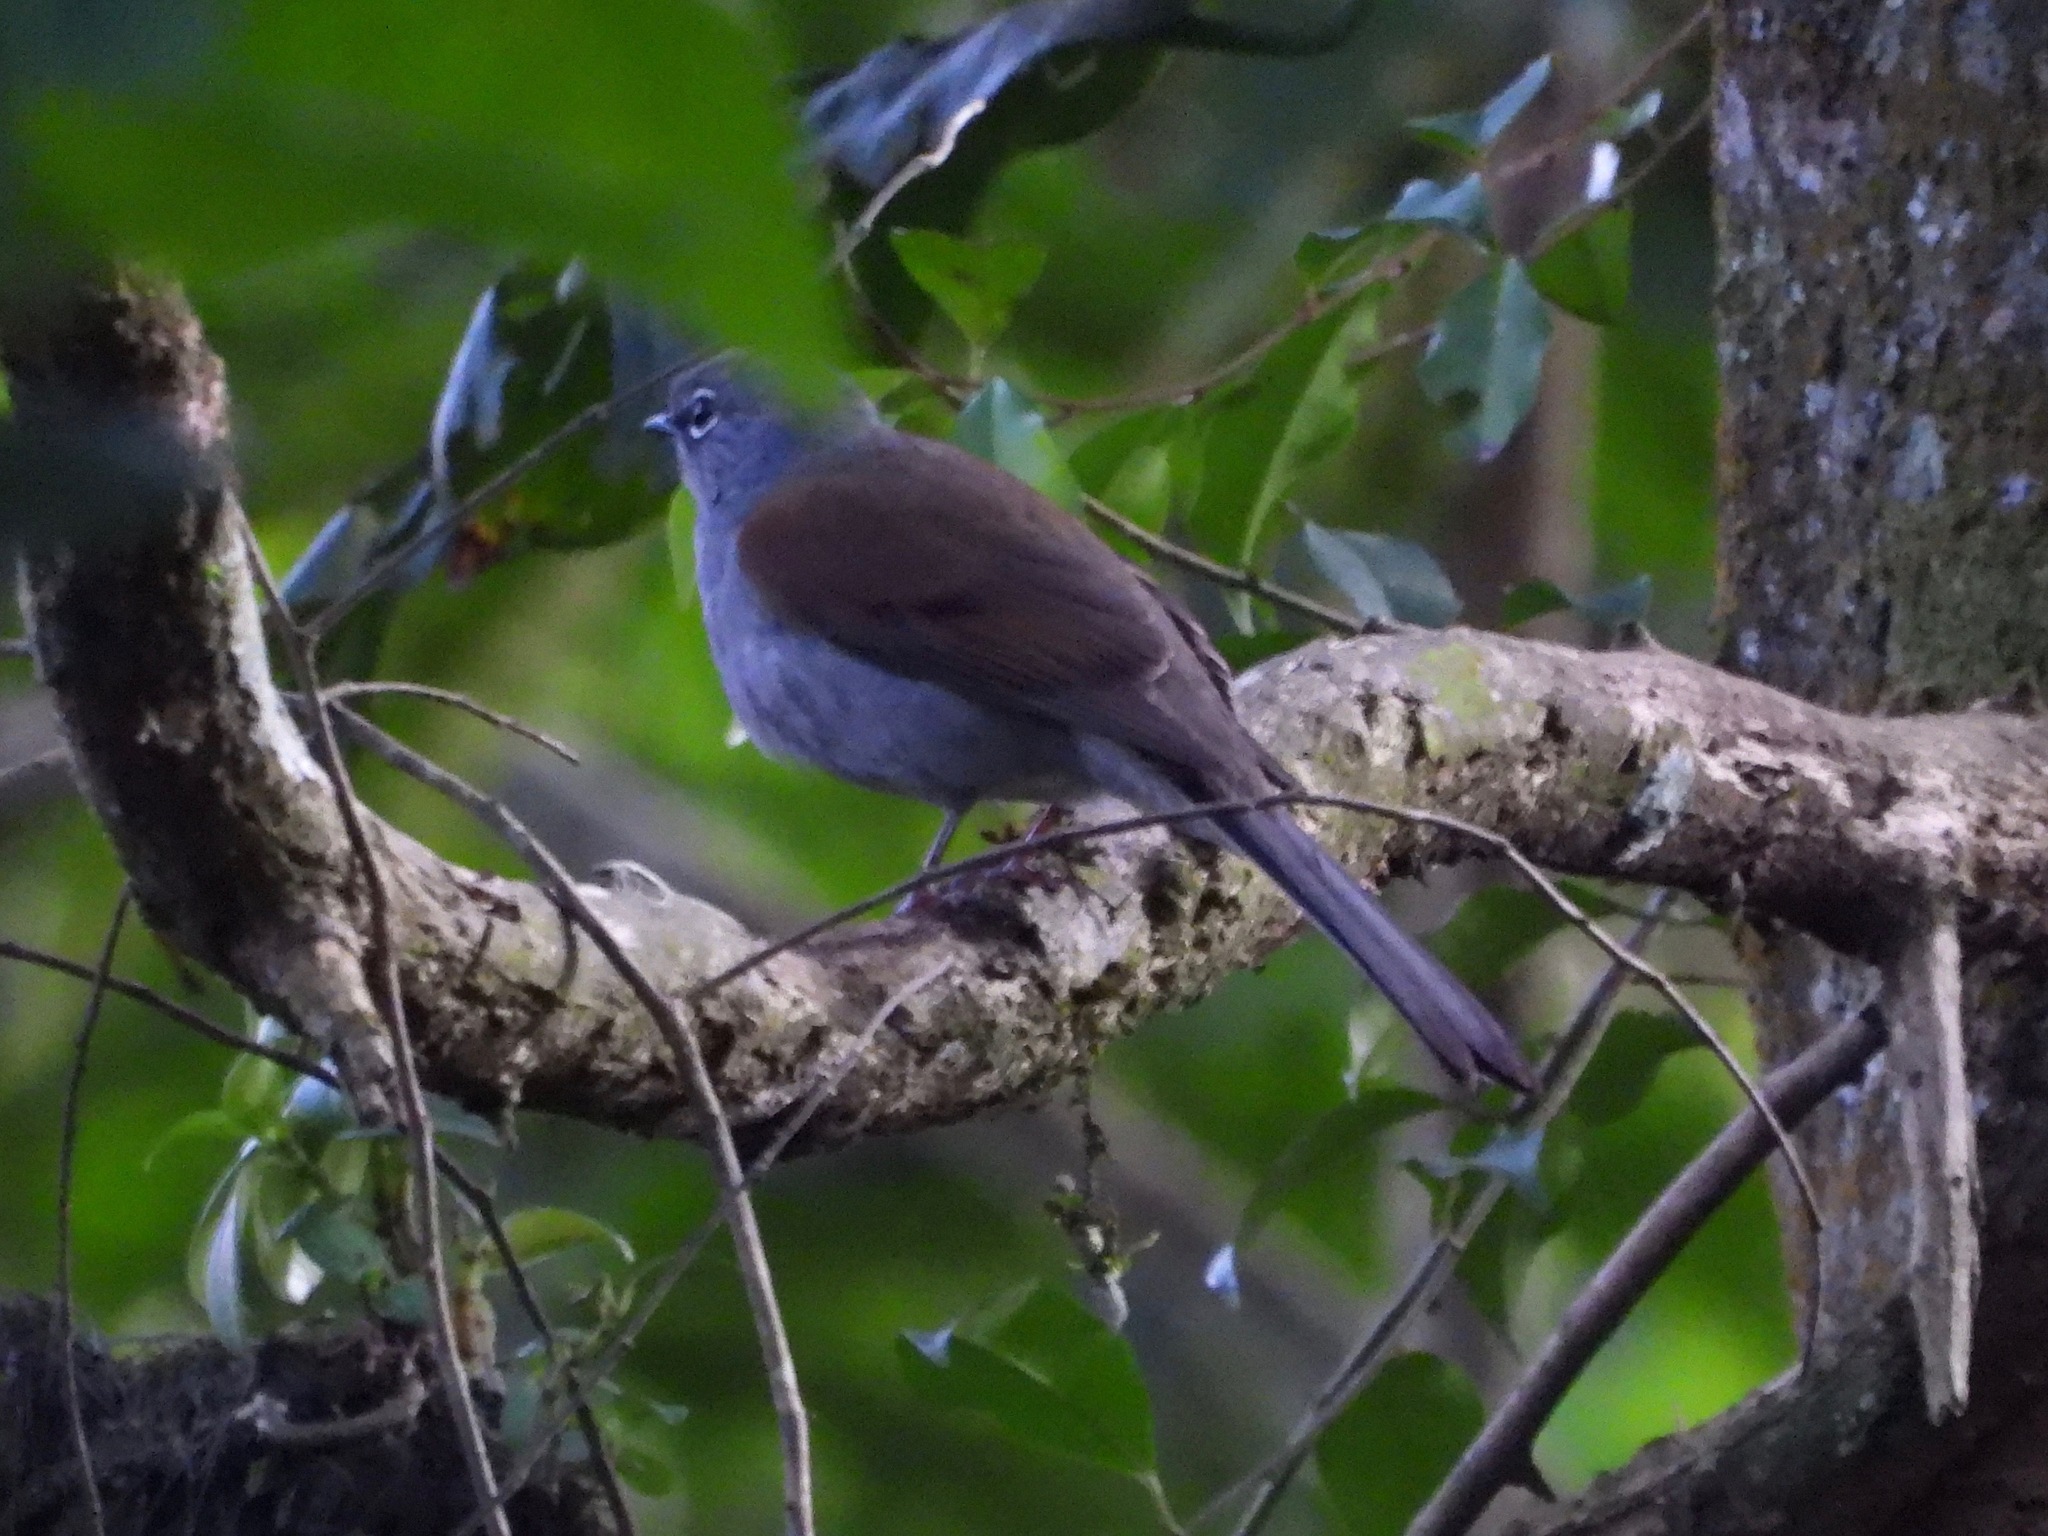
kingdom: Animalia
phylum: Chordata
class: Aves
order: Passeriformes
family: Turdidae
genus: Myadestes
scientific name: Myadestes occidentalis
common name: Brown-backed solitaire
